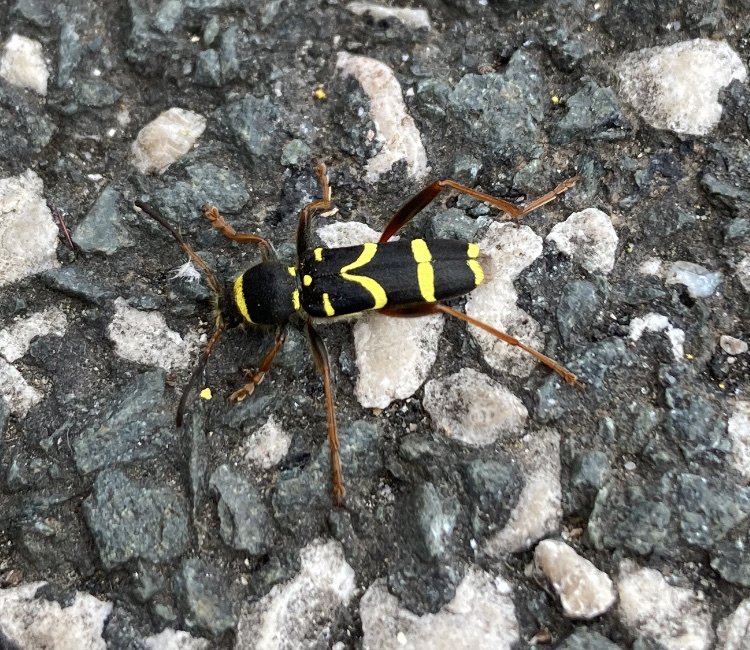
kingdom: Animalia
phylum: Arthropoda
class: Insecta
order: Coleoptera
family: Cerambycidae
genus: Clytus
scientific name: Clytus arietis
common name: Wasp beetle
